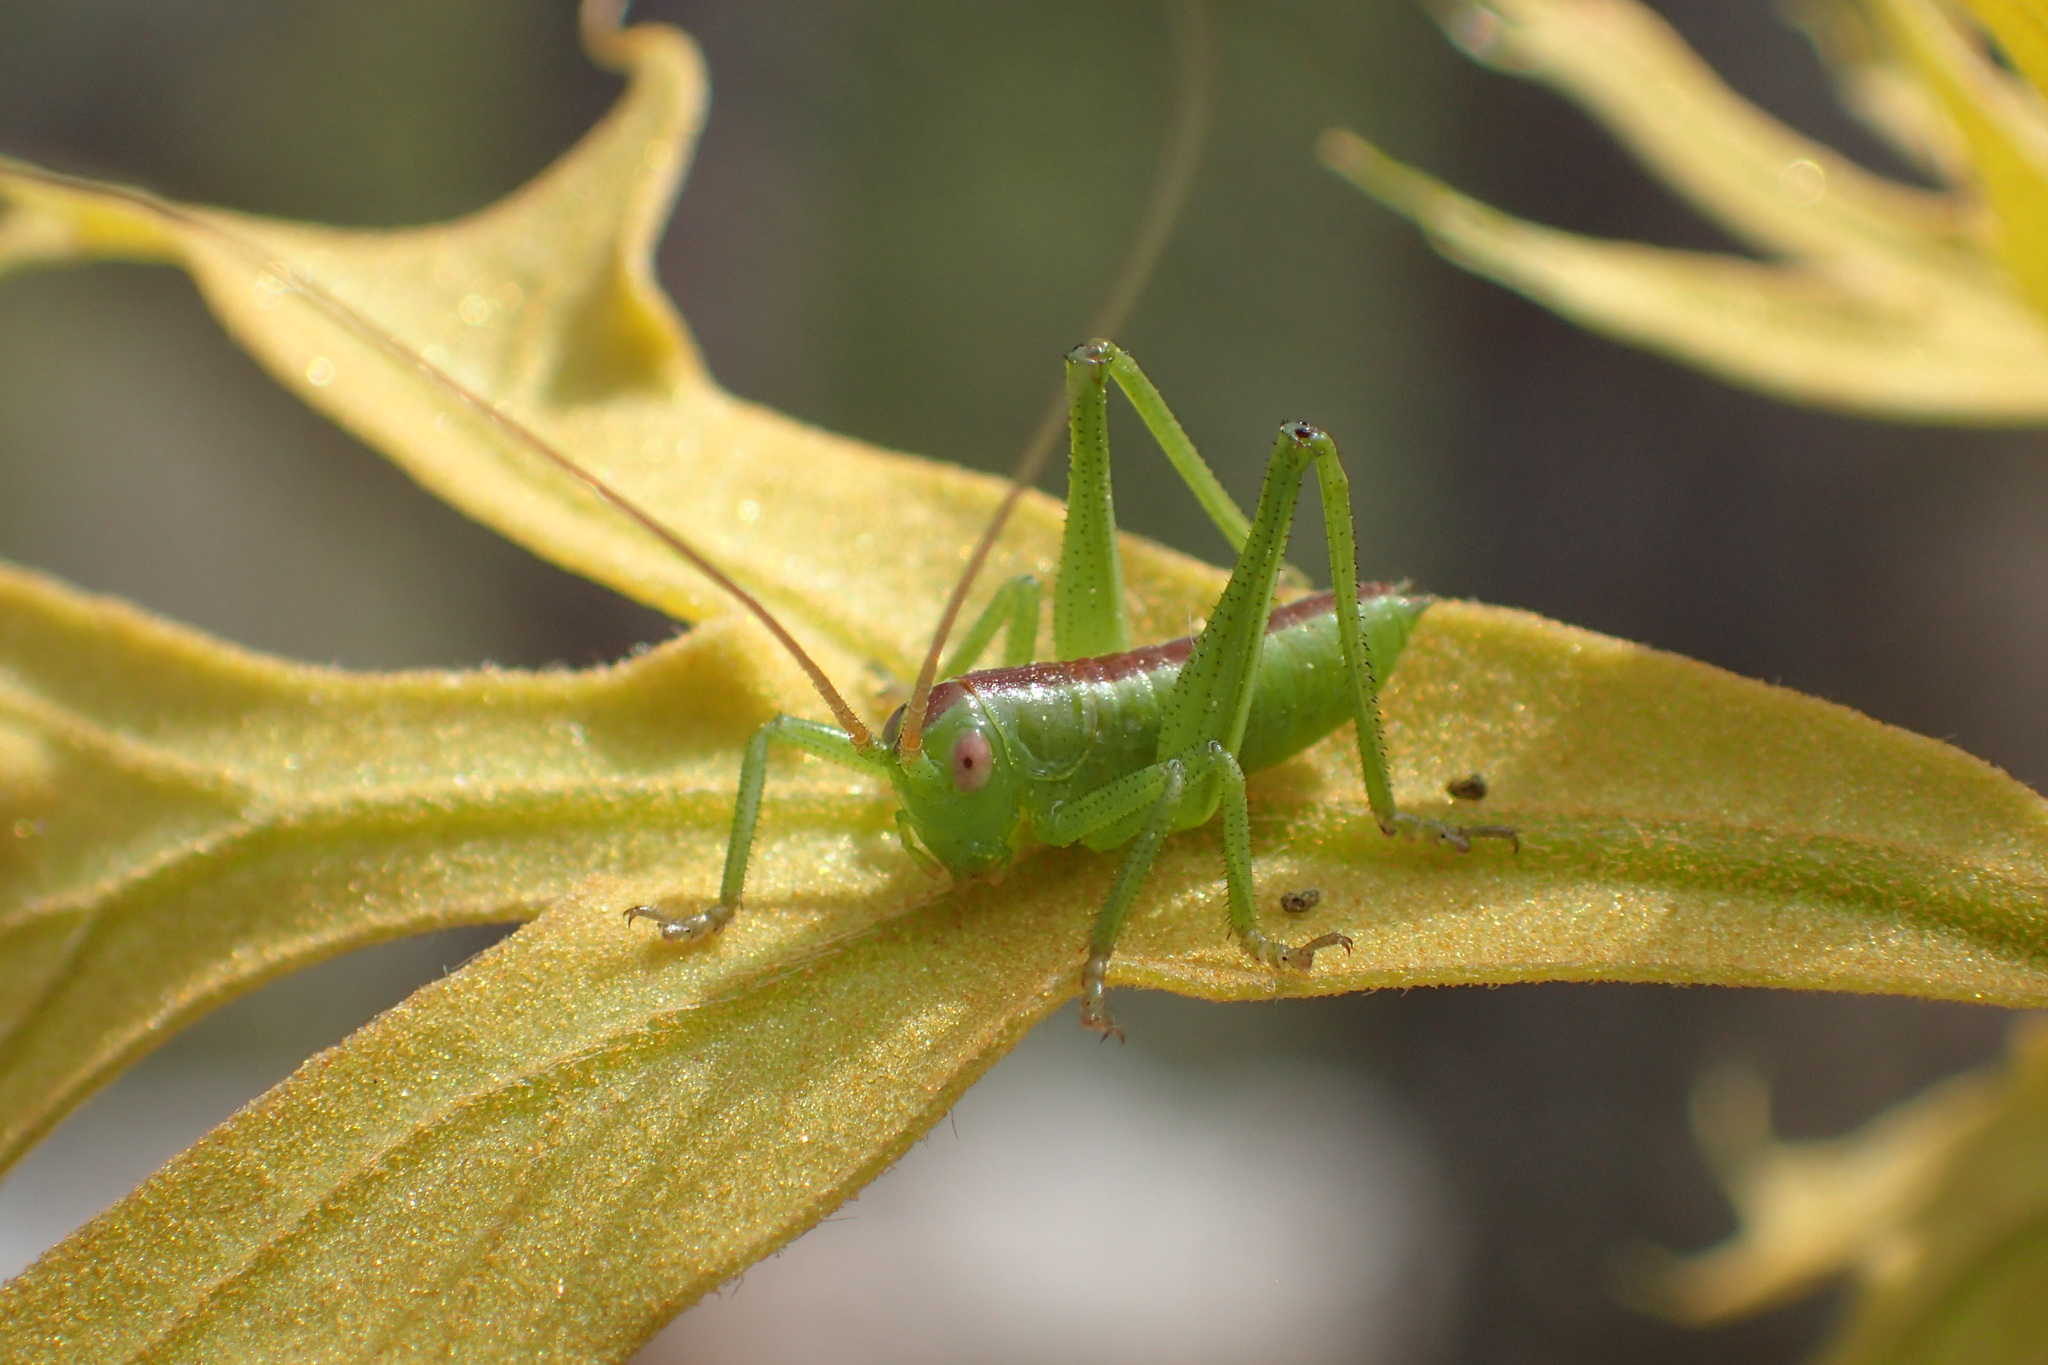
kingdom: Animalia
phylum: Arthropoda
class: Insecta
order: Orthoptera
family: Tettigoniidae
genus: Hubbellia
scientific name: Hubbellia marginifera
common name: Pine katydid
